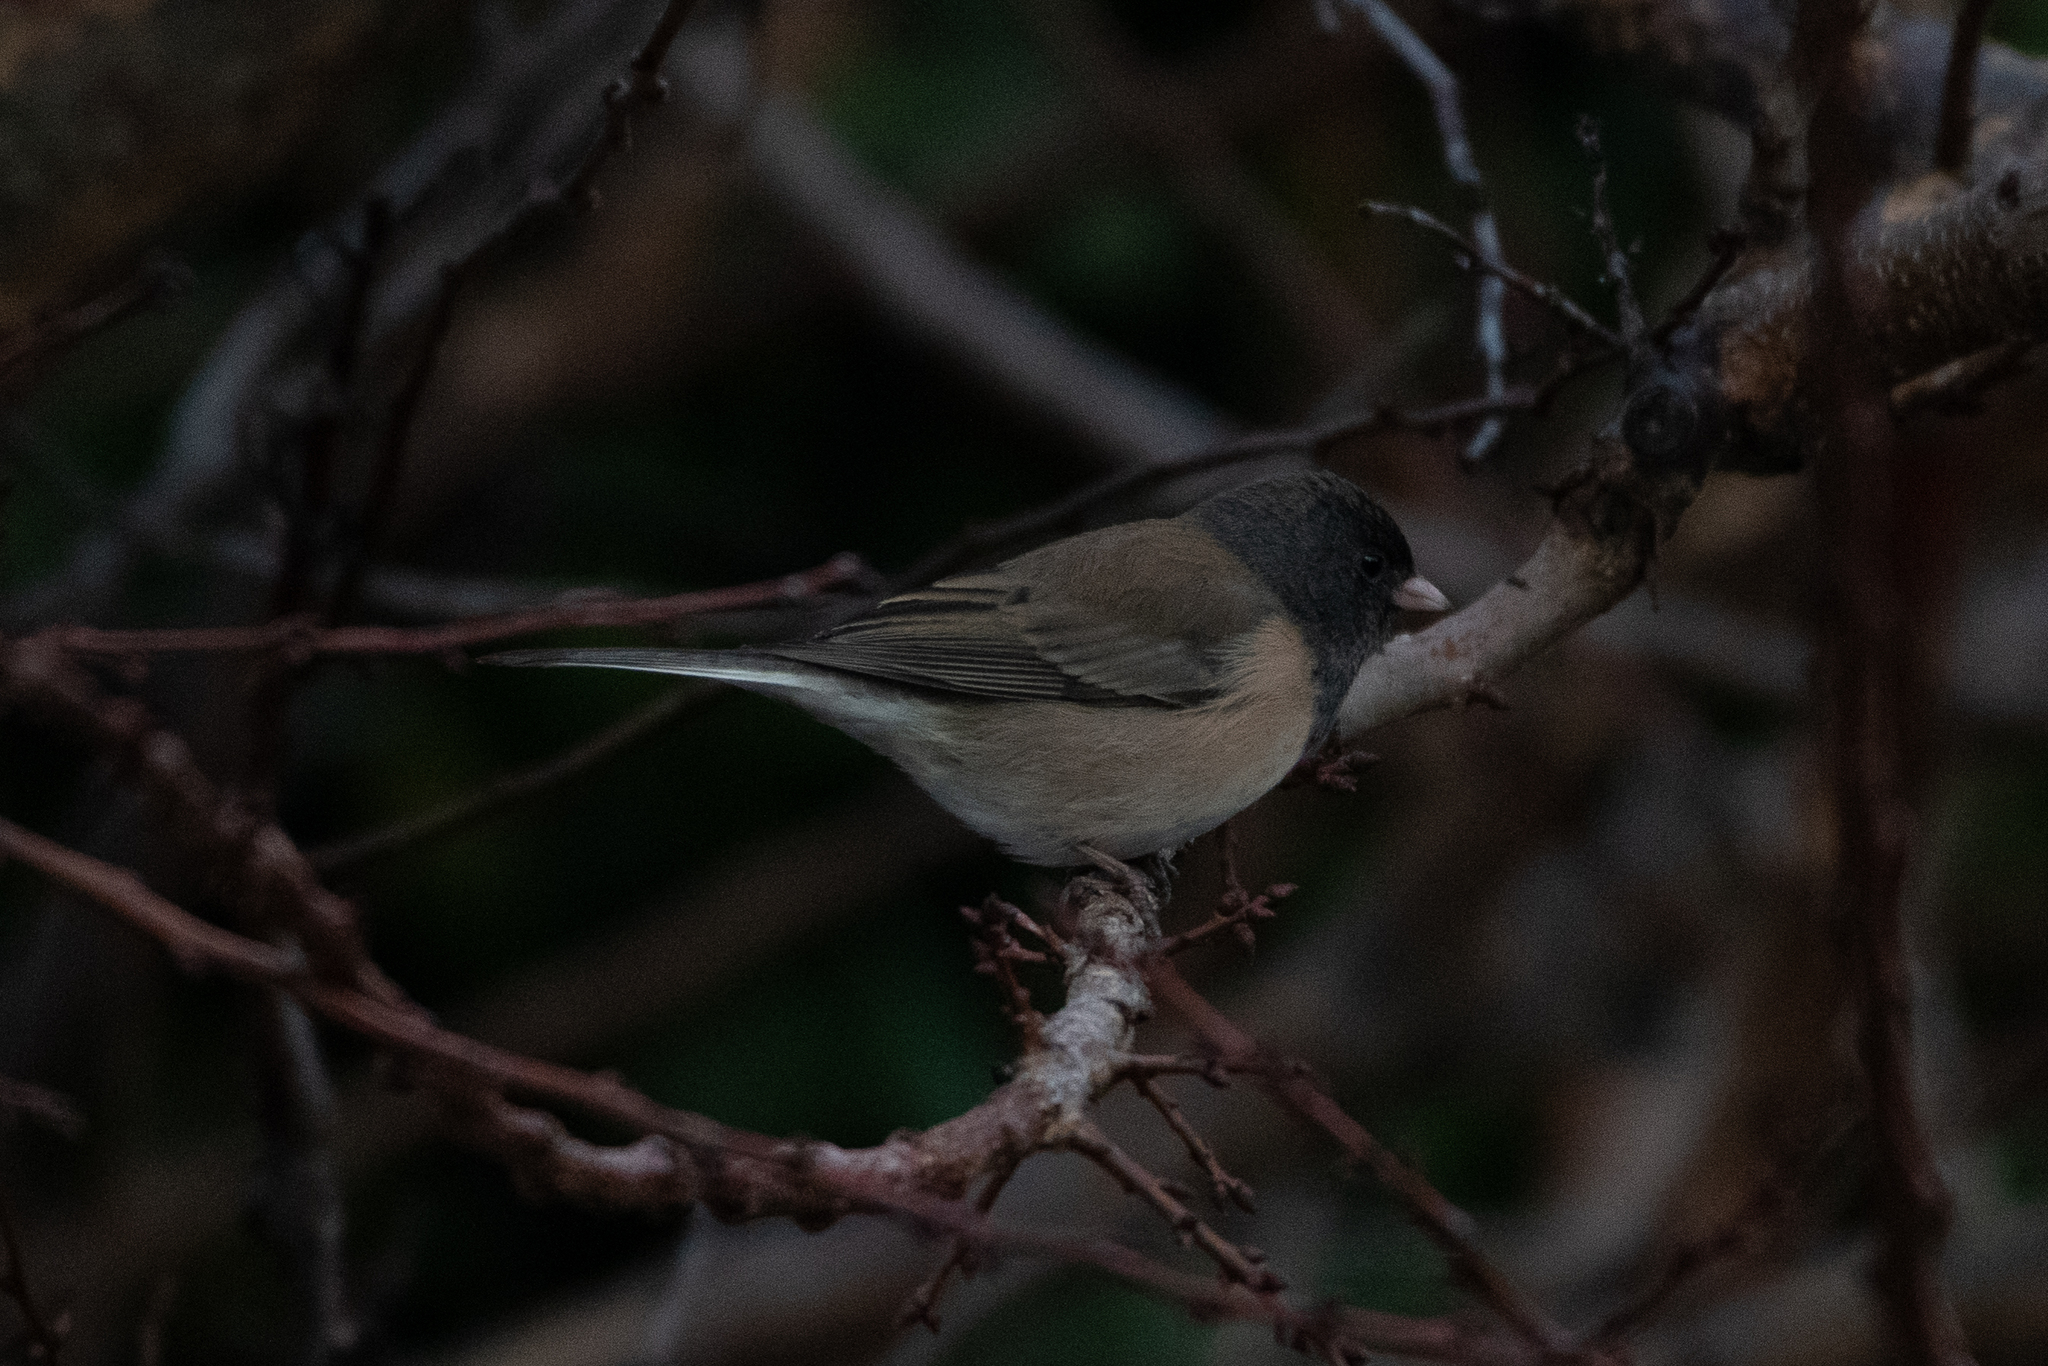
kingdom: Animalia
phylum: Chordata
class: Aves
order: Passeriformes
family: Passerellidae
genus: Junco
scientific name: Junco hyemalis
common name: Dark-eyed junco
